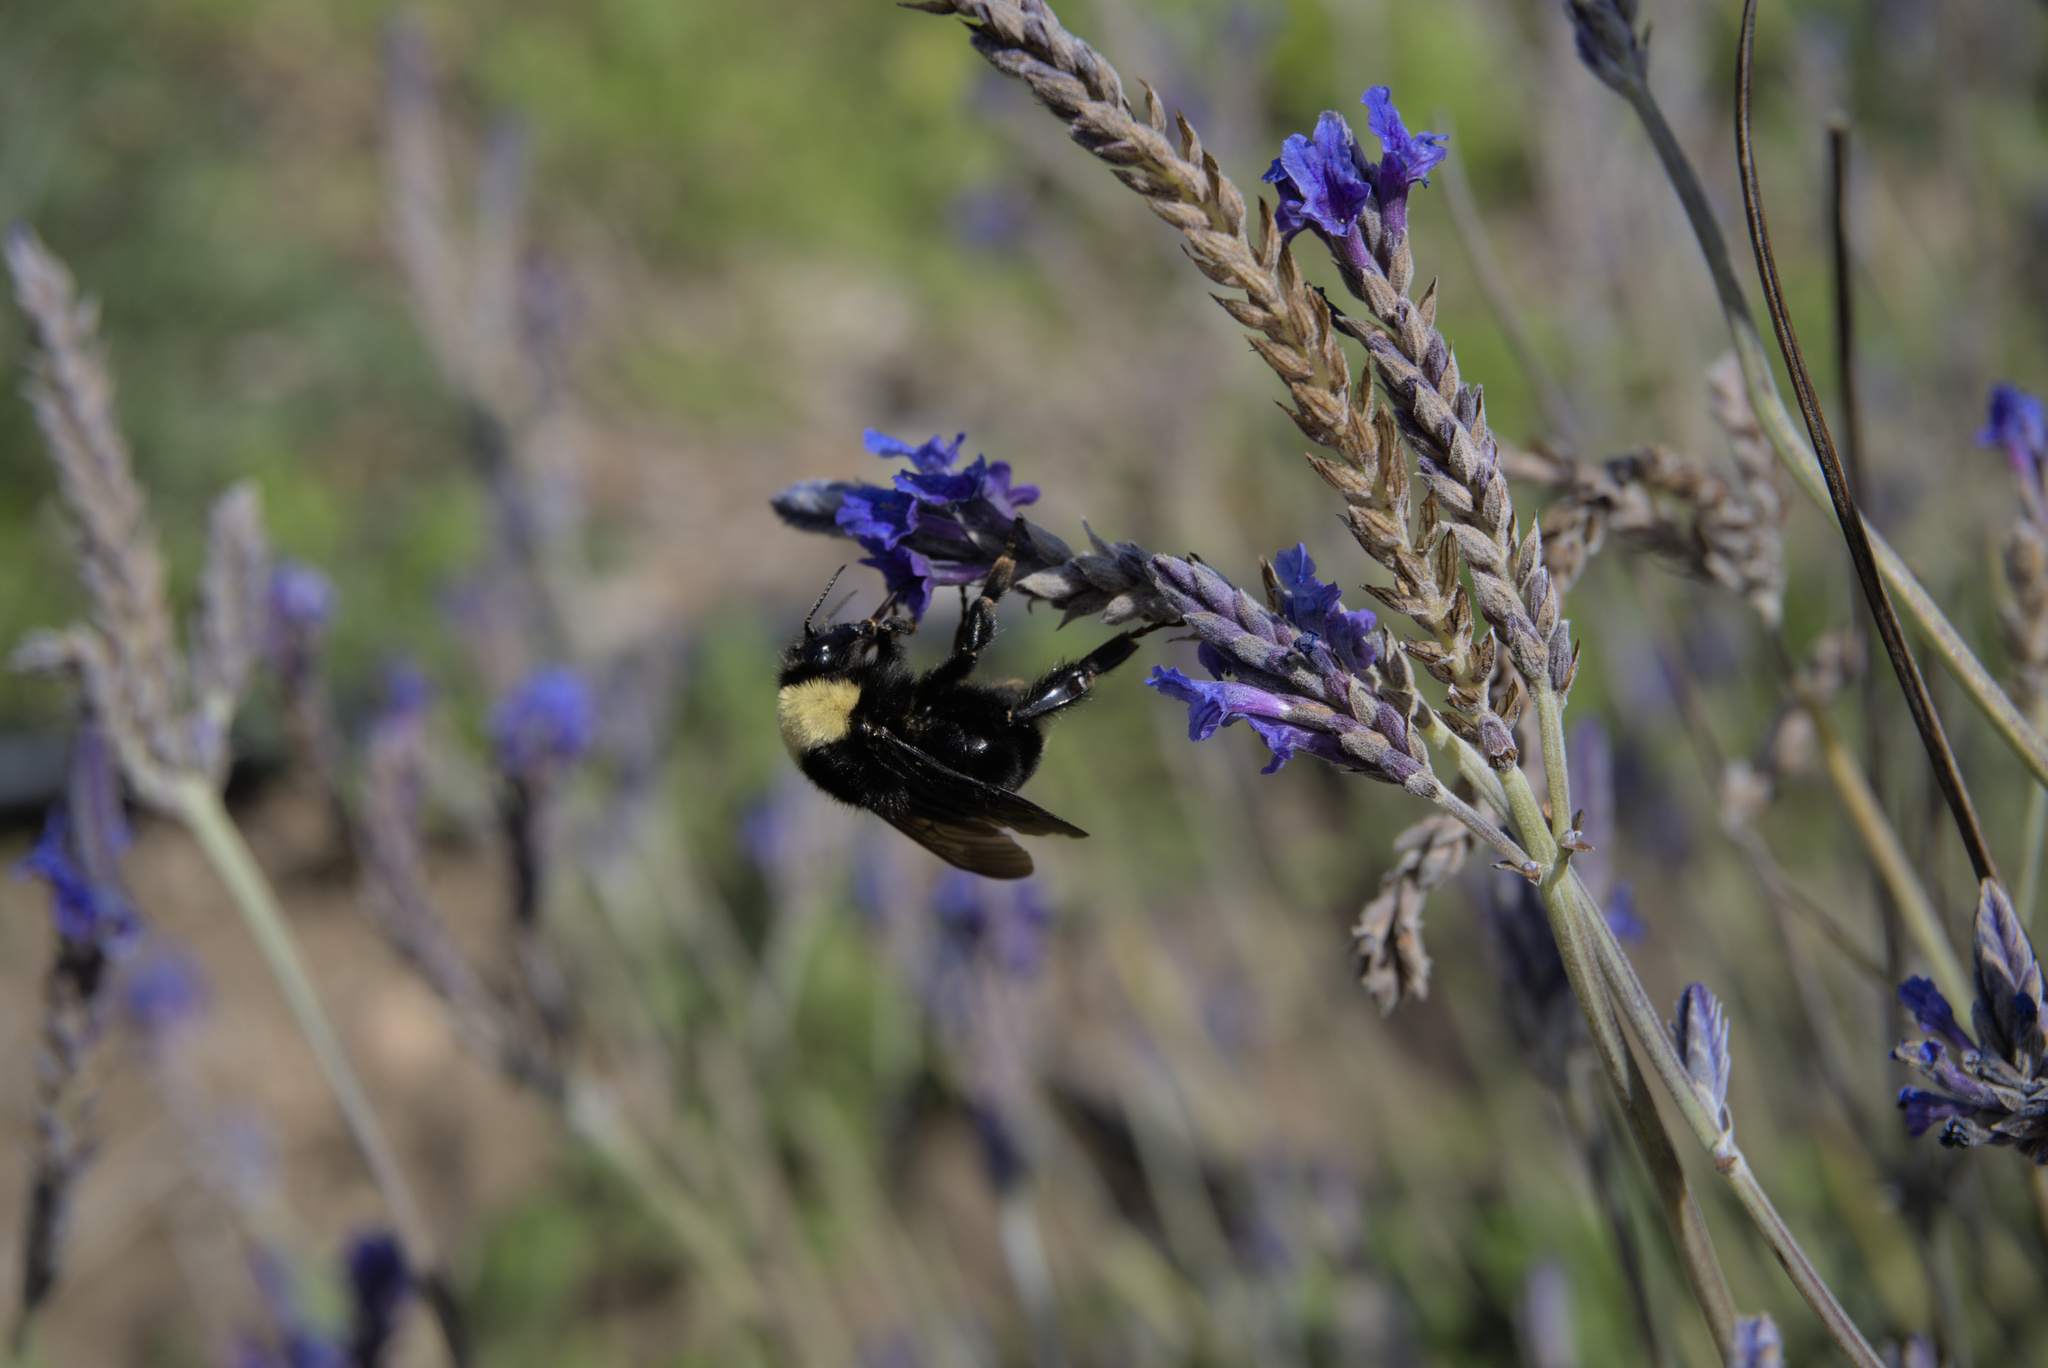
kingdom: Animalia
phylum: Arthropoda
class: Insecta
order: Hymenoptera
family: Apidae
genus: Bombus
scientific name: Bombus californicus
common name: California bumble bee
